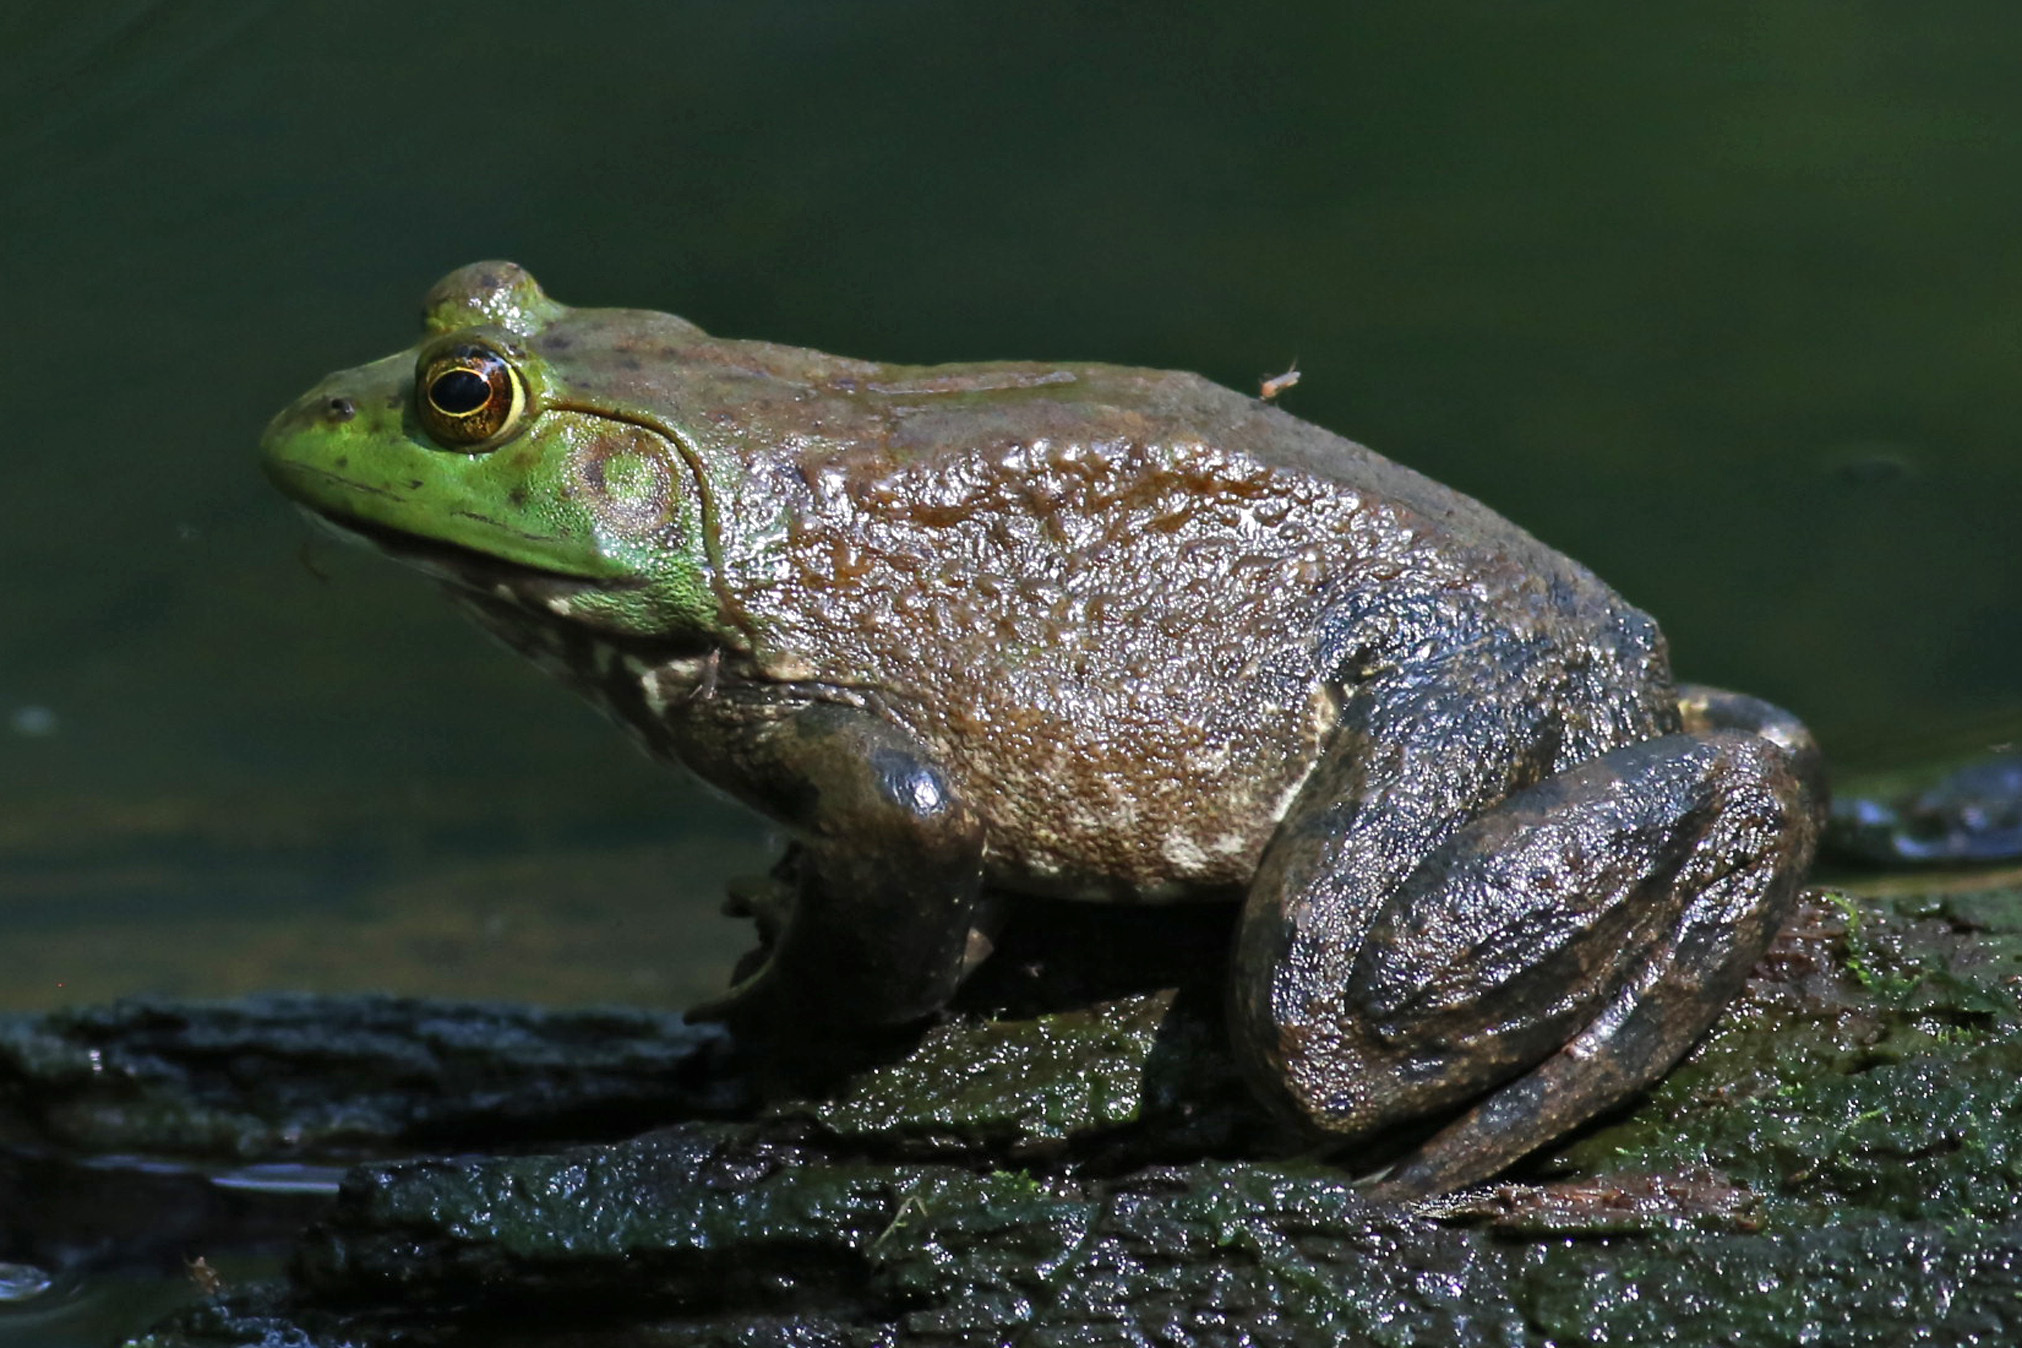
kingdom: Animalia
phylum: Chordata
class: Amphibia
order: Anura
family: Ranidae
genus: Lithobates
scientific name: Lithobates catesbeianus
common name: American bullfrog
